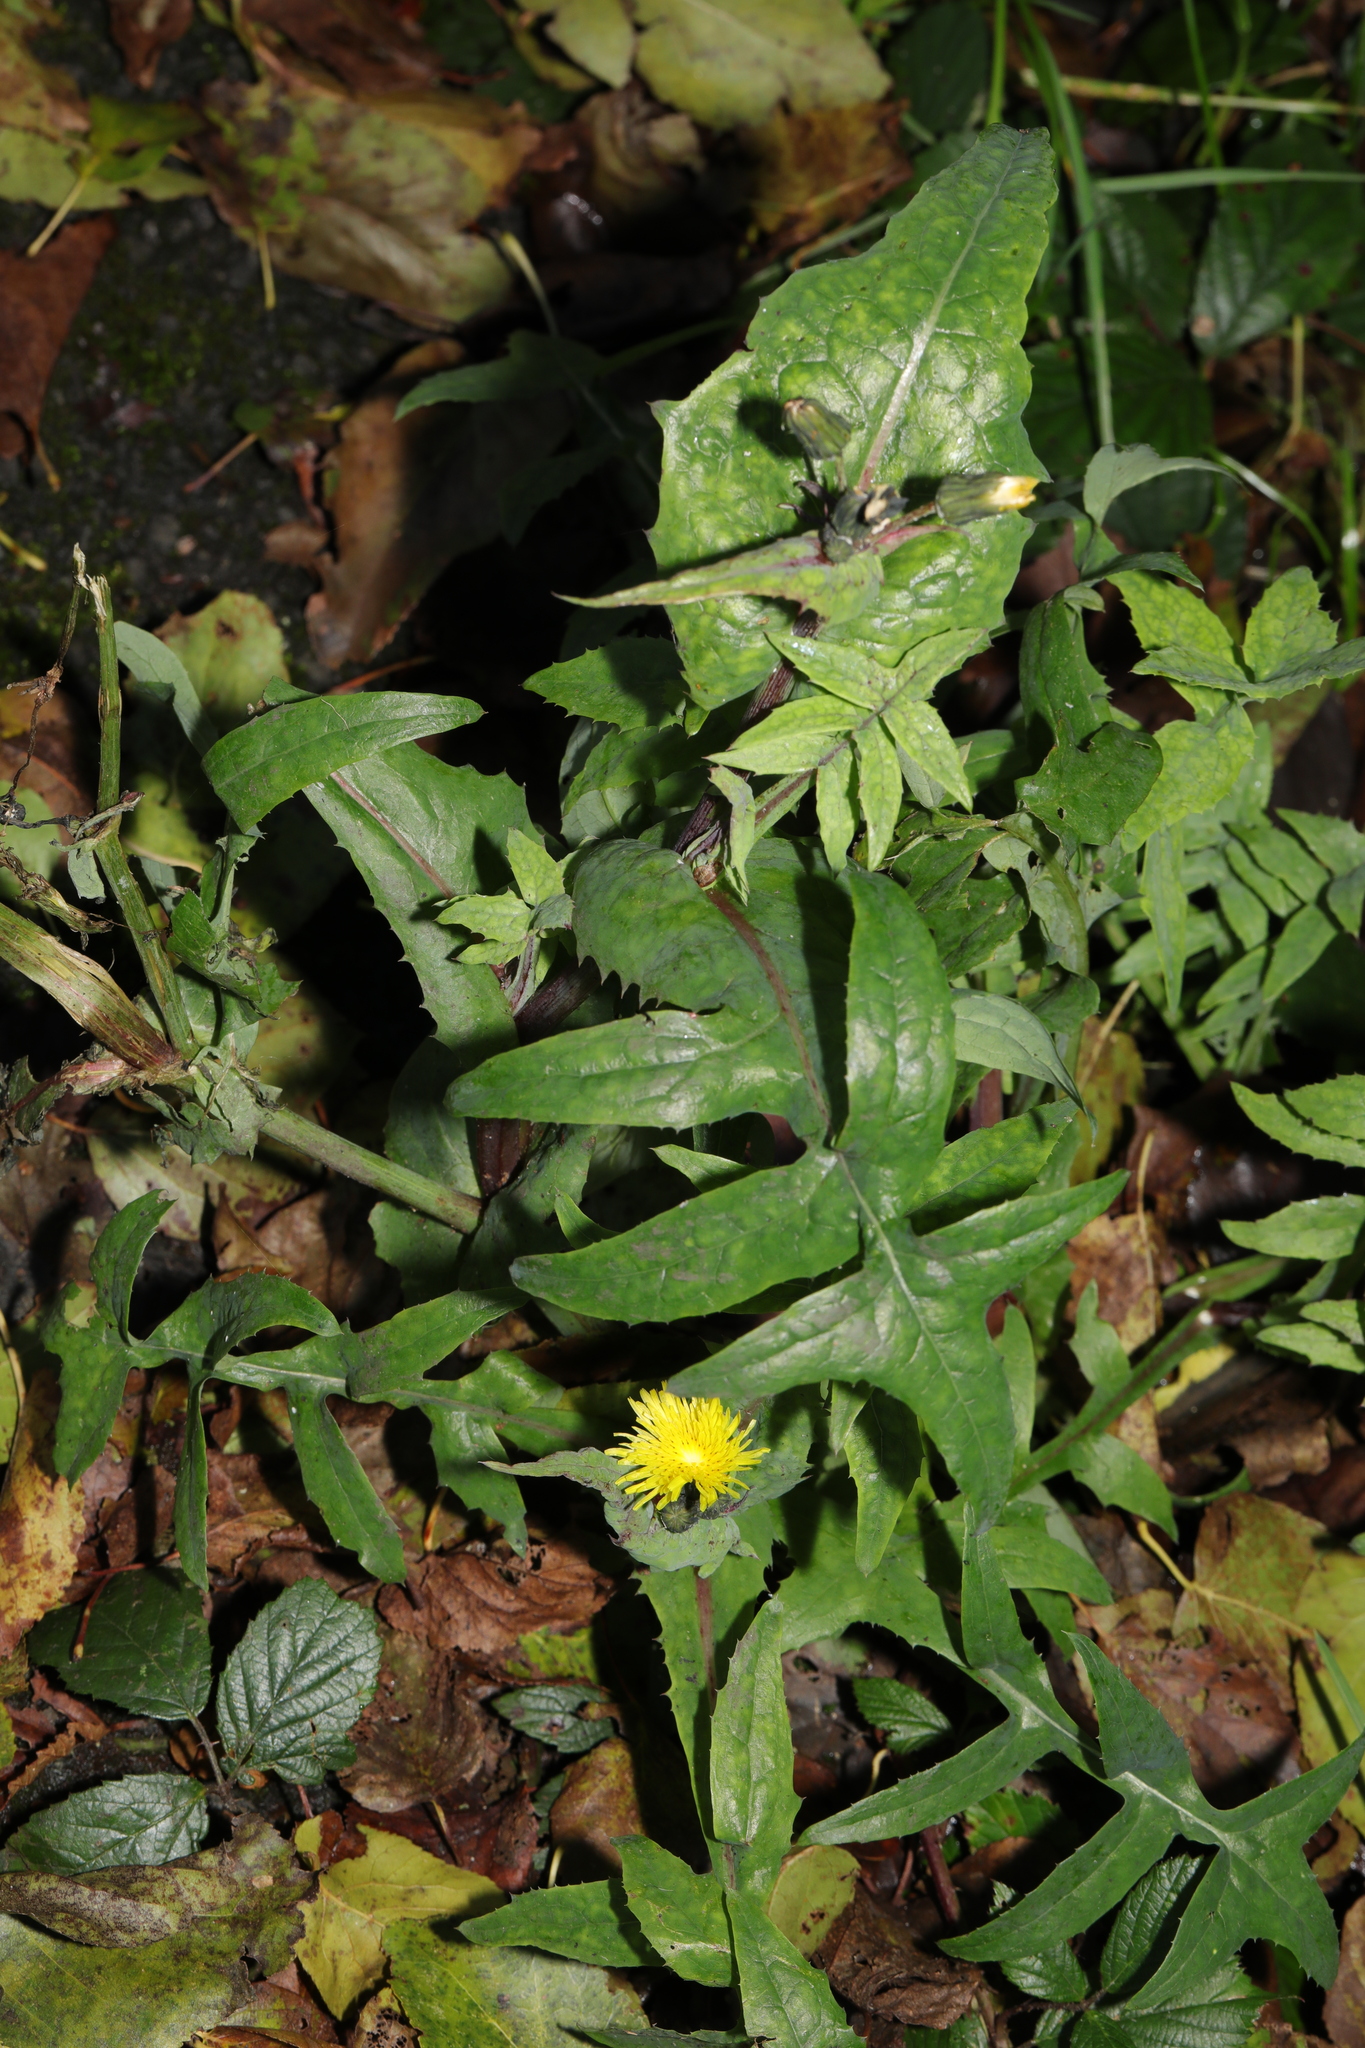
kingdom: Plantae
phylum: Tracheophyta
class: Magnoliopsida
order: Asterales
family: Asteraceae
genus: Sonchus
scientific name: Sonchus oleraceus
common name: Common sowthistle
